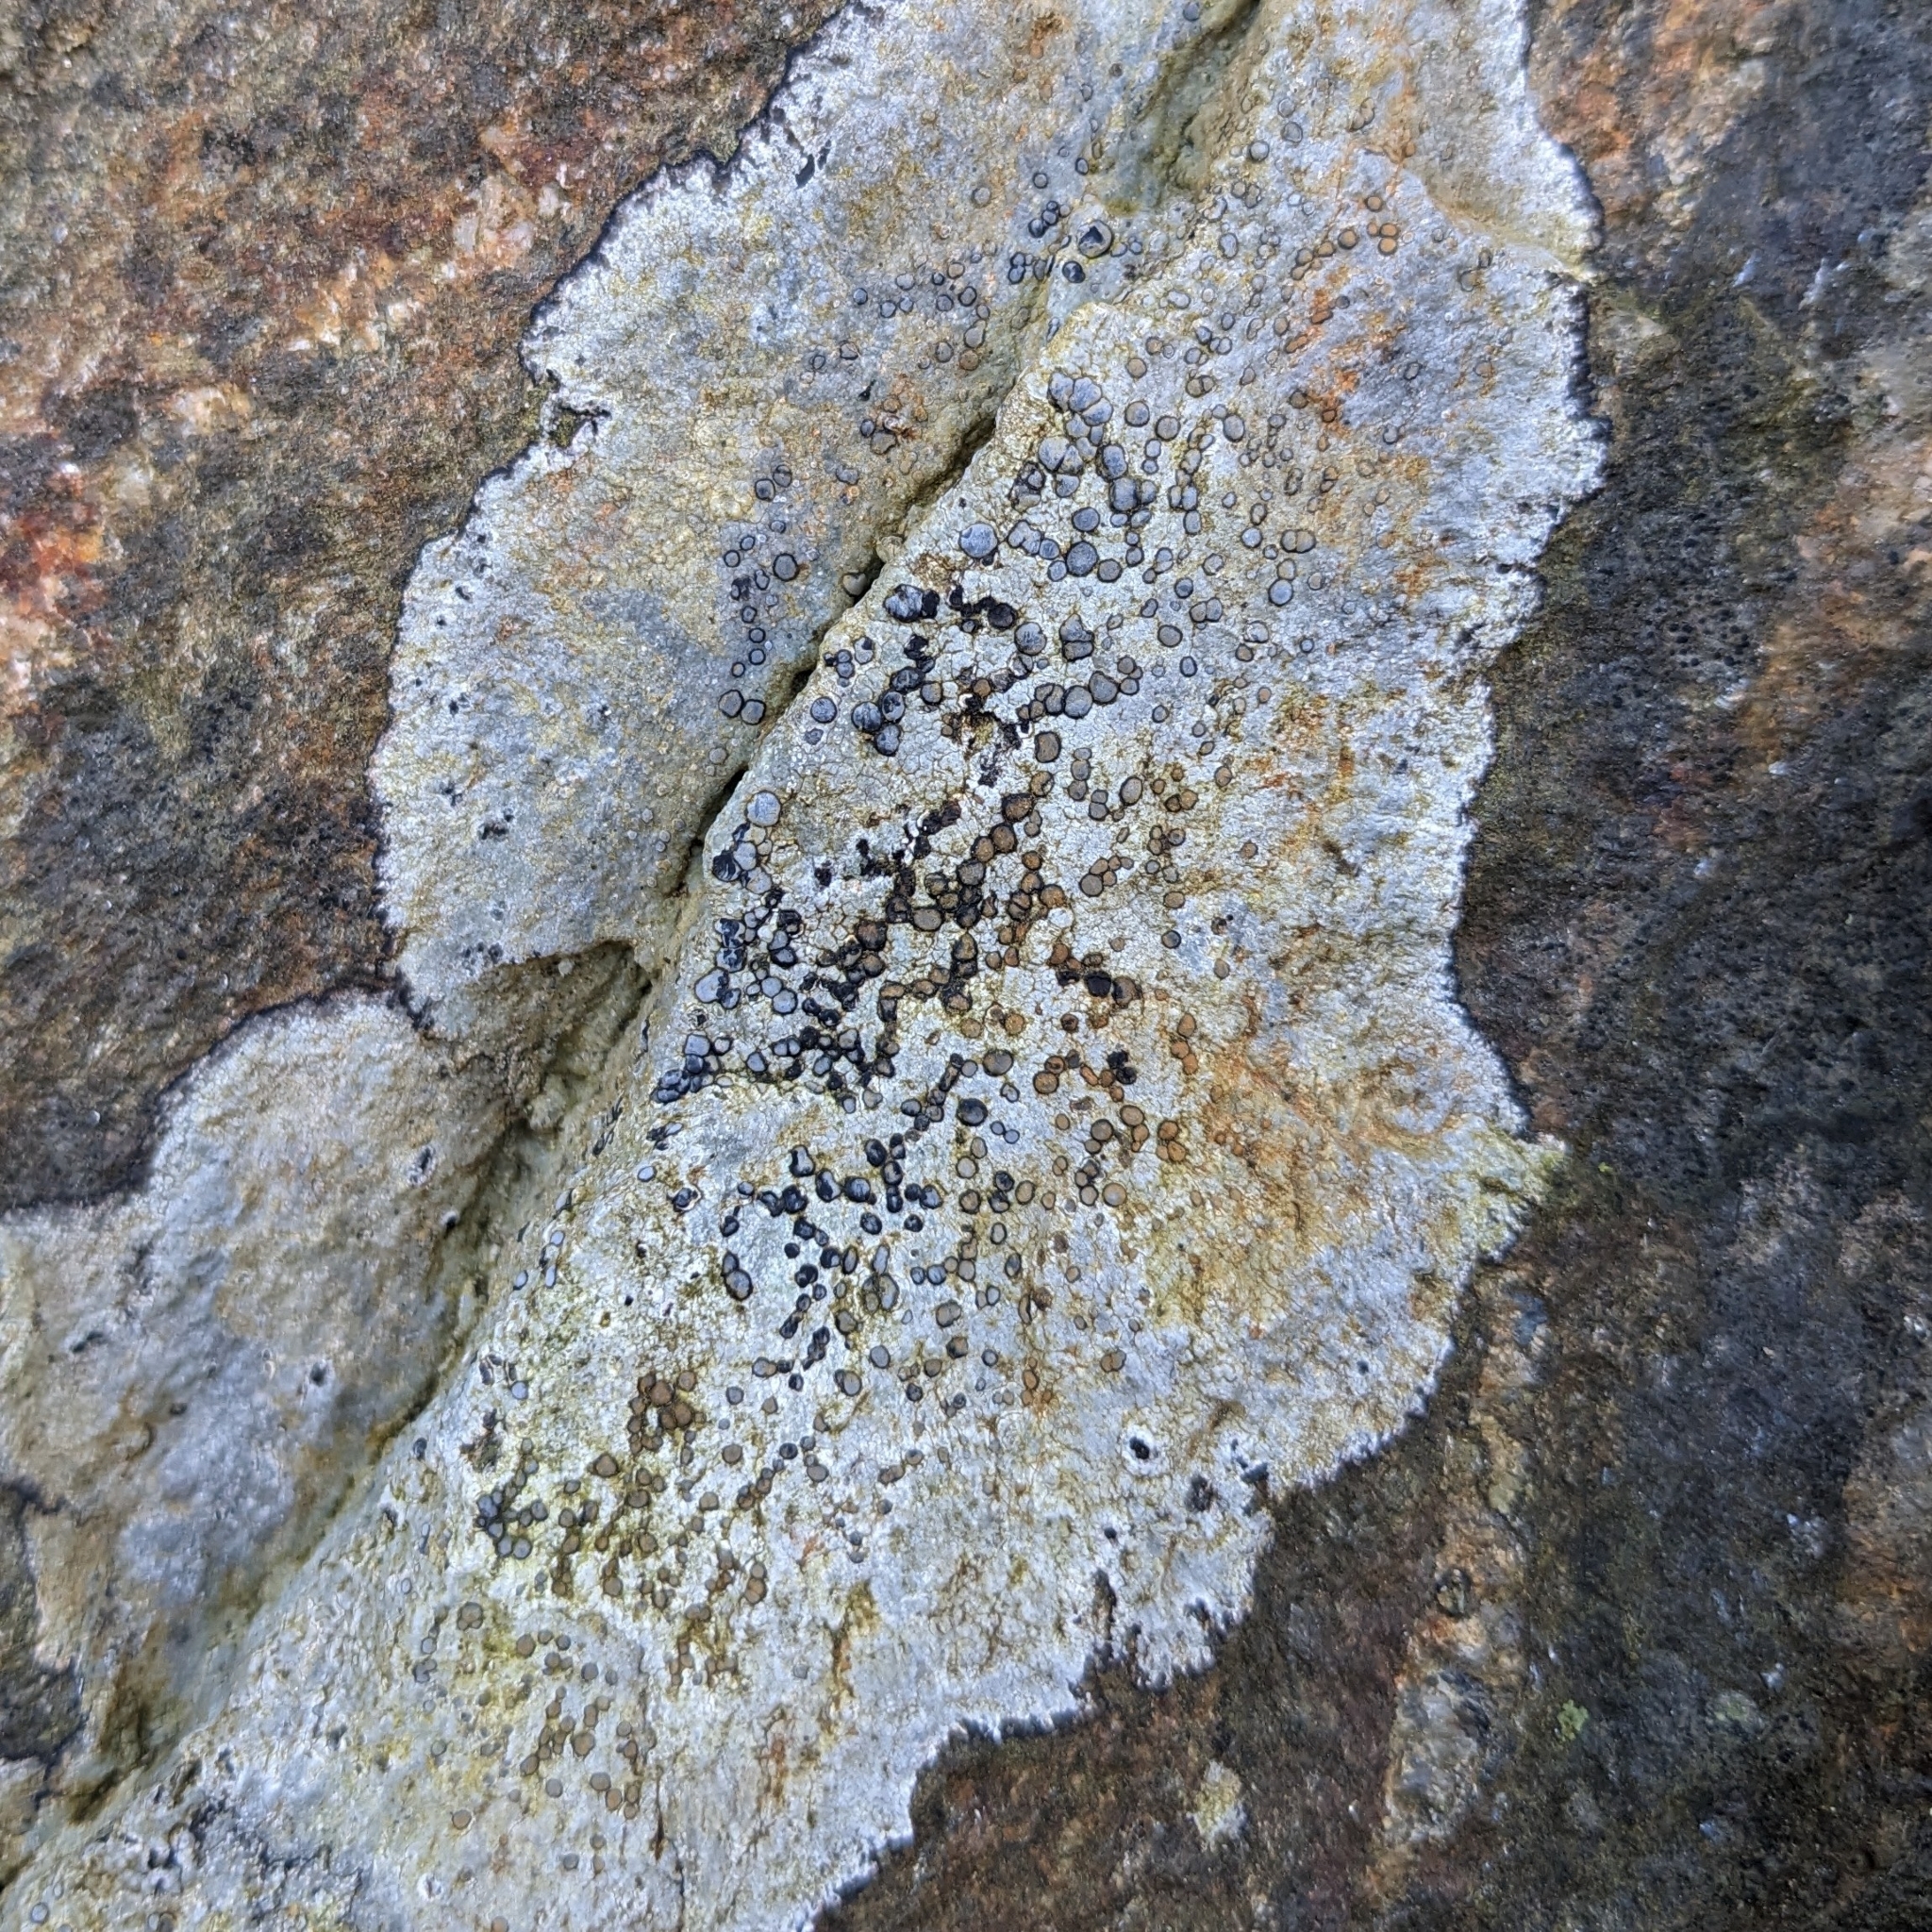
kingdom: Fungi
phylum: Ascomycota
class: Lecanoromycetes
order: Lecideales
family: Lecideaceae
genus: Porpidia
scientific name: Porpidia albocaerulescens
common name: Smokey-eyed boulder lichen
